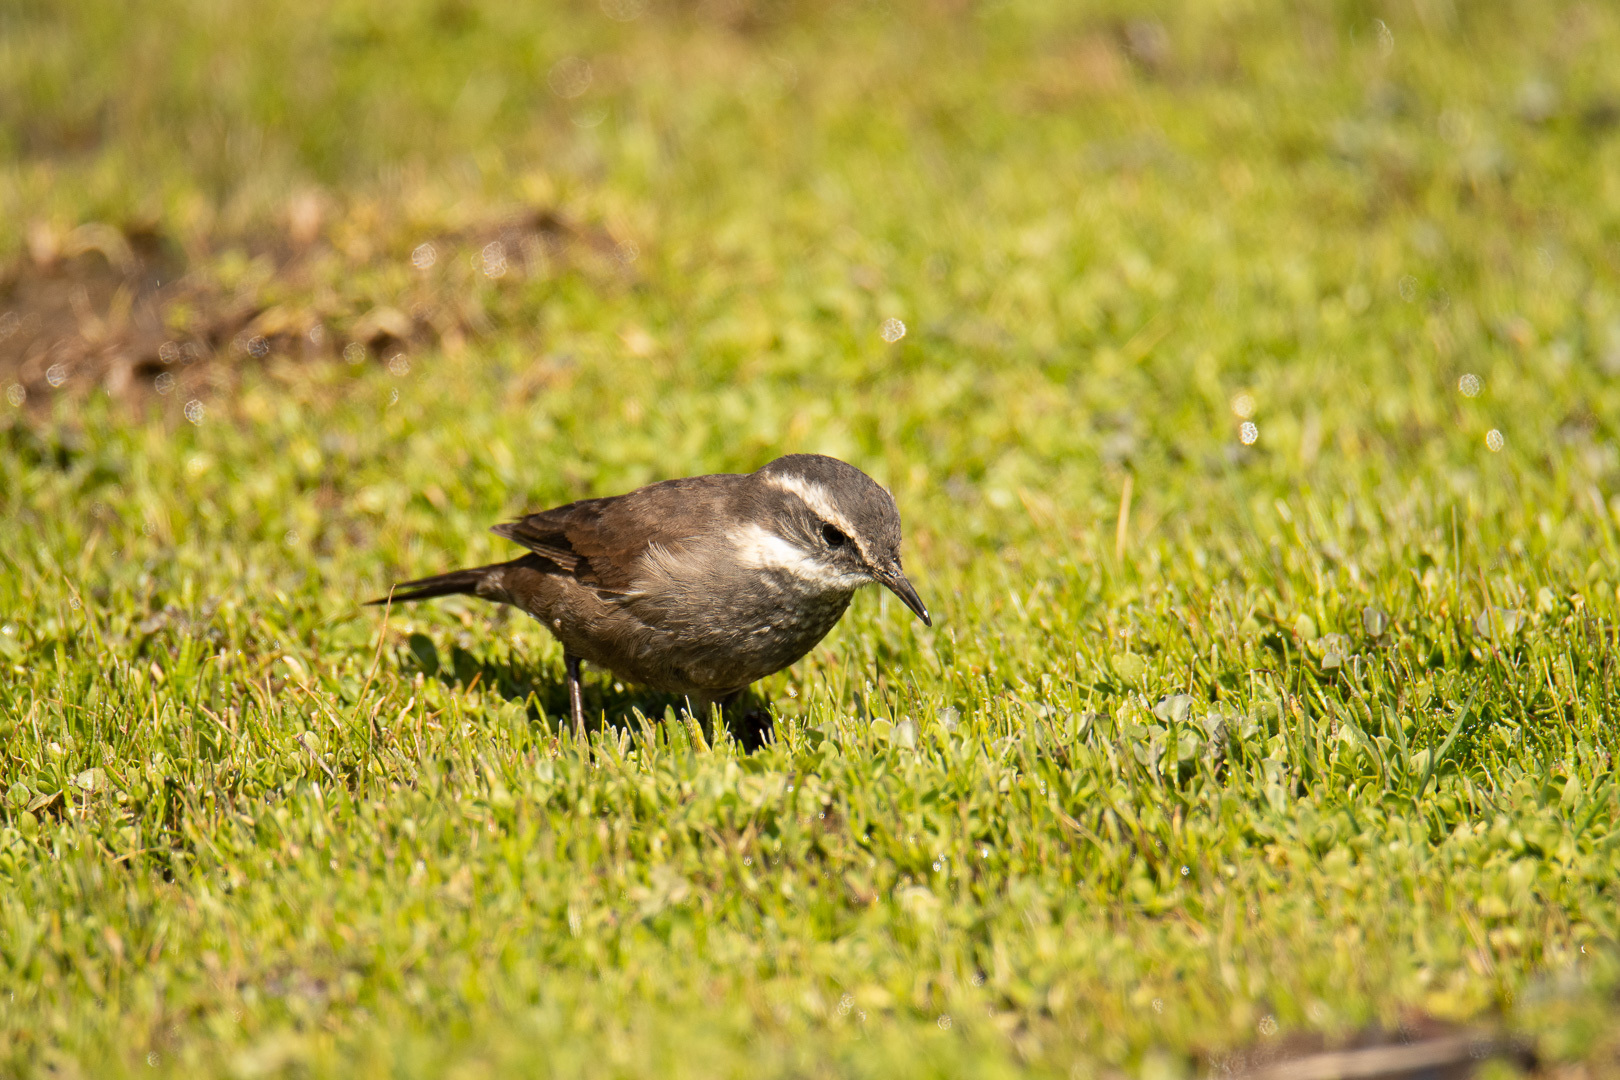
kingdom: Animalia
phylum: Chordata
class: Aves
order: Passeriformes
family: Furnariidae
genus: Cinclodes
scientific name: Cinclodes oustaleti
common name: Grey-flanked cinclodes
